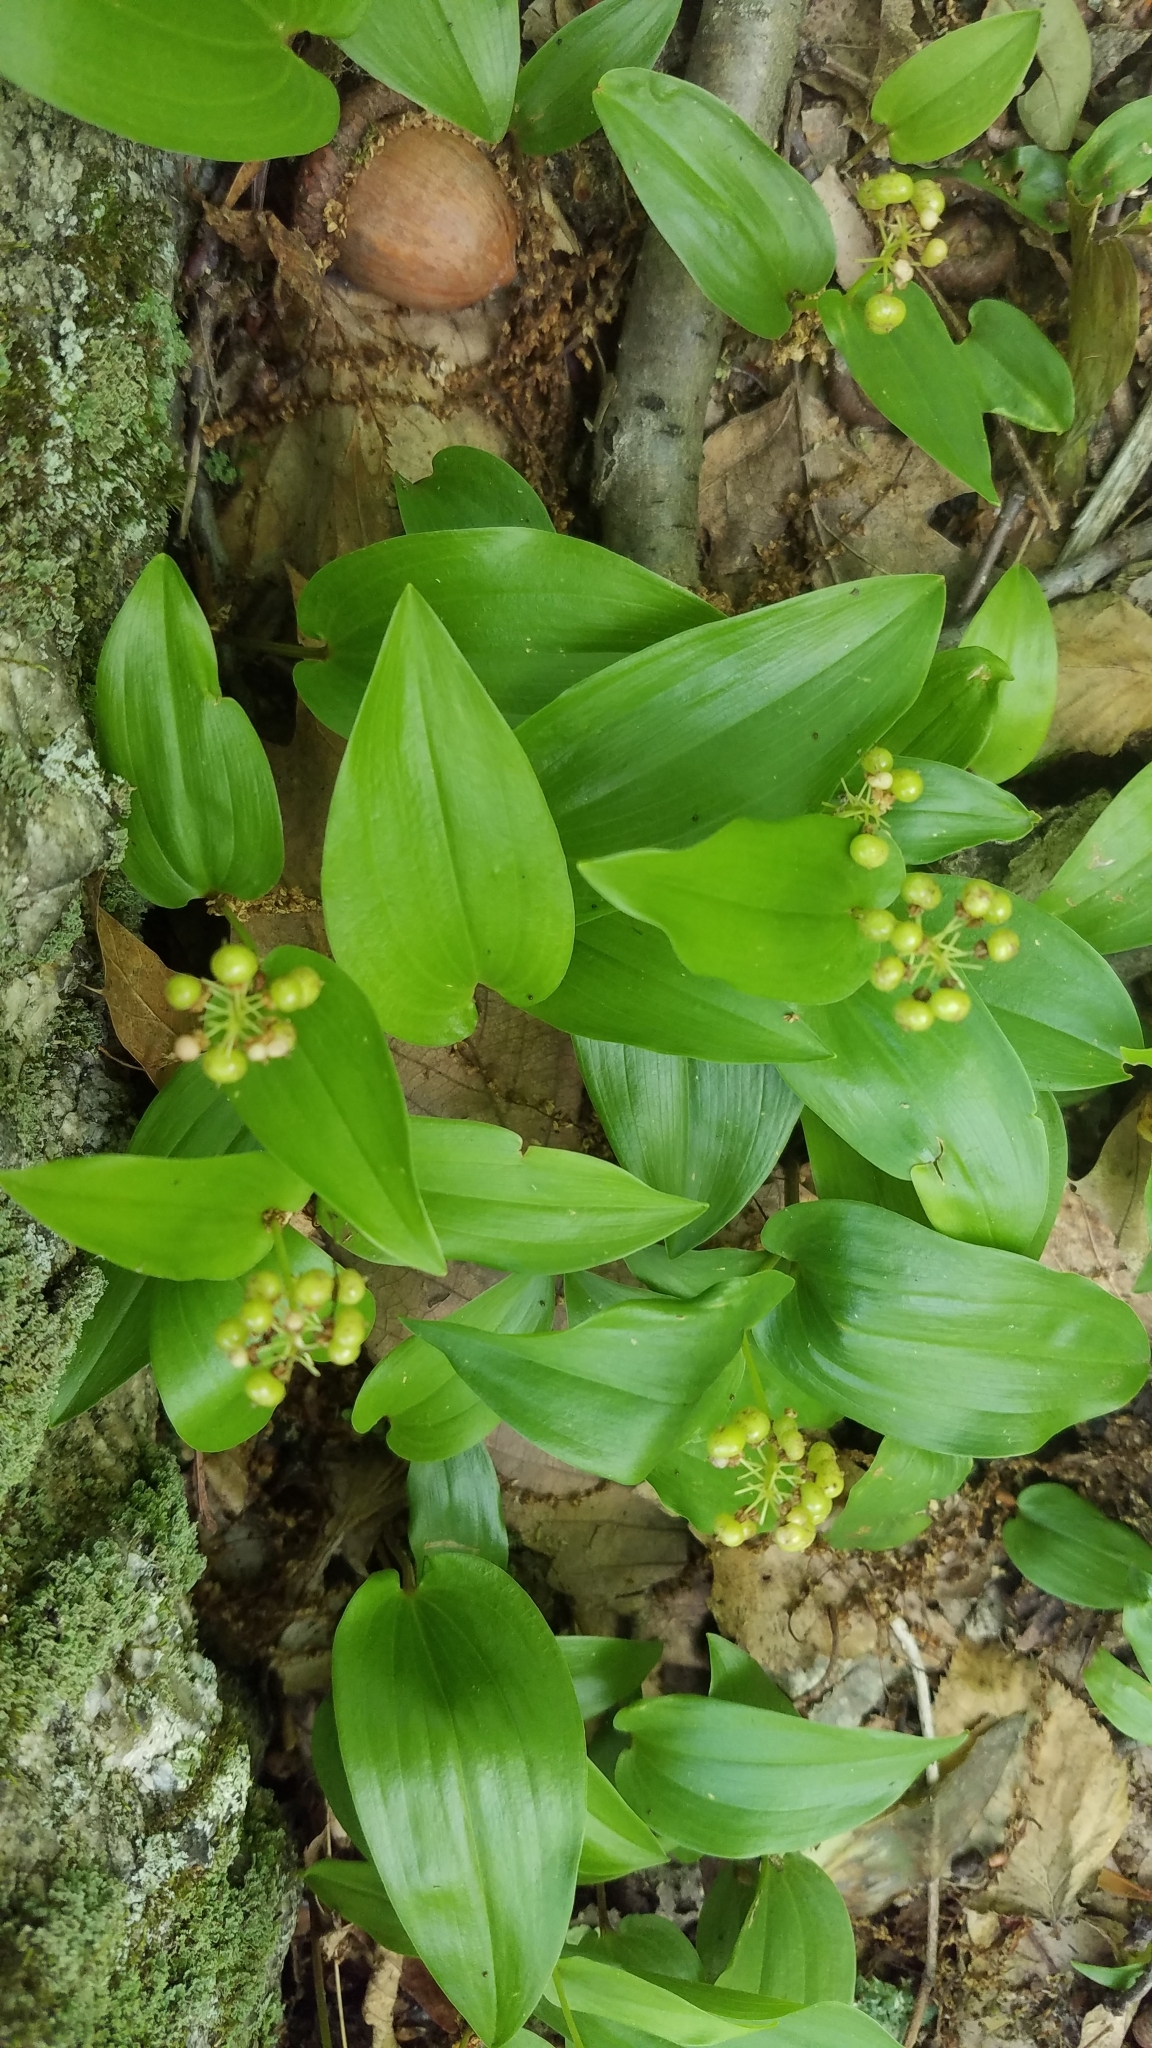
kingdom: Plantae
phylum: Tracheophyta
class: Liliopsida
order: Asparagales
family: Asparagaceae
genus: Maianthemum
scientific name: Maianthemum canadense
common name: False lily-of-the-valley
